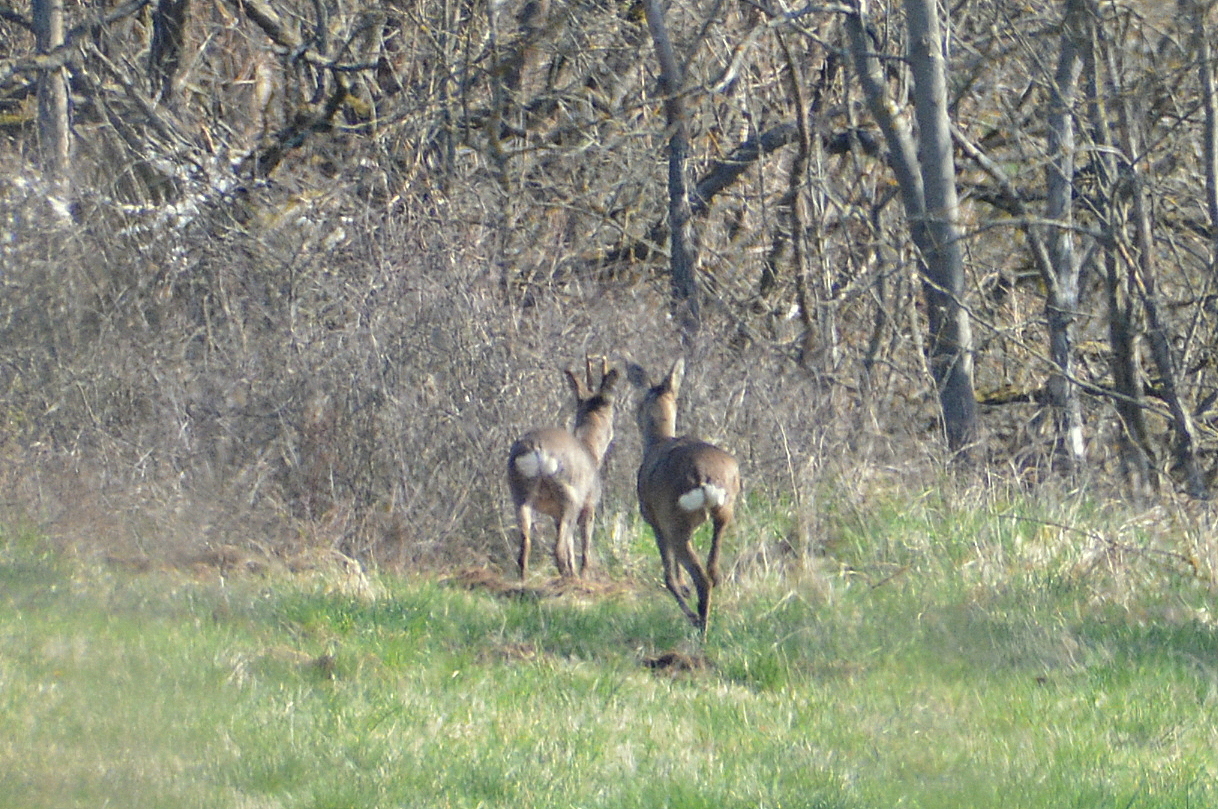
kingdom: Animalia
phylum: Chordata
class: Mammalia
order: Artiodactyla
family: Cervidae
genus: Capreolus
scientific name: Capreolus capreolus
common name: Western roe deer
